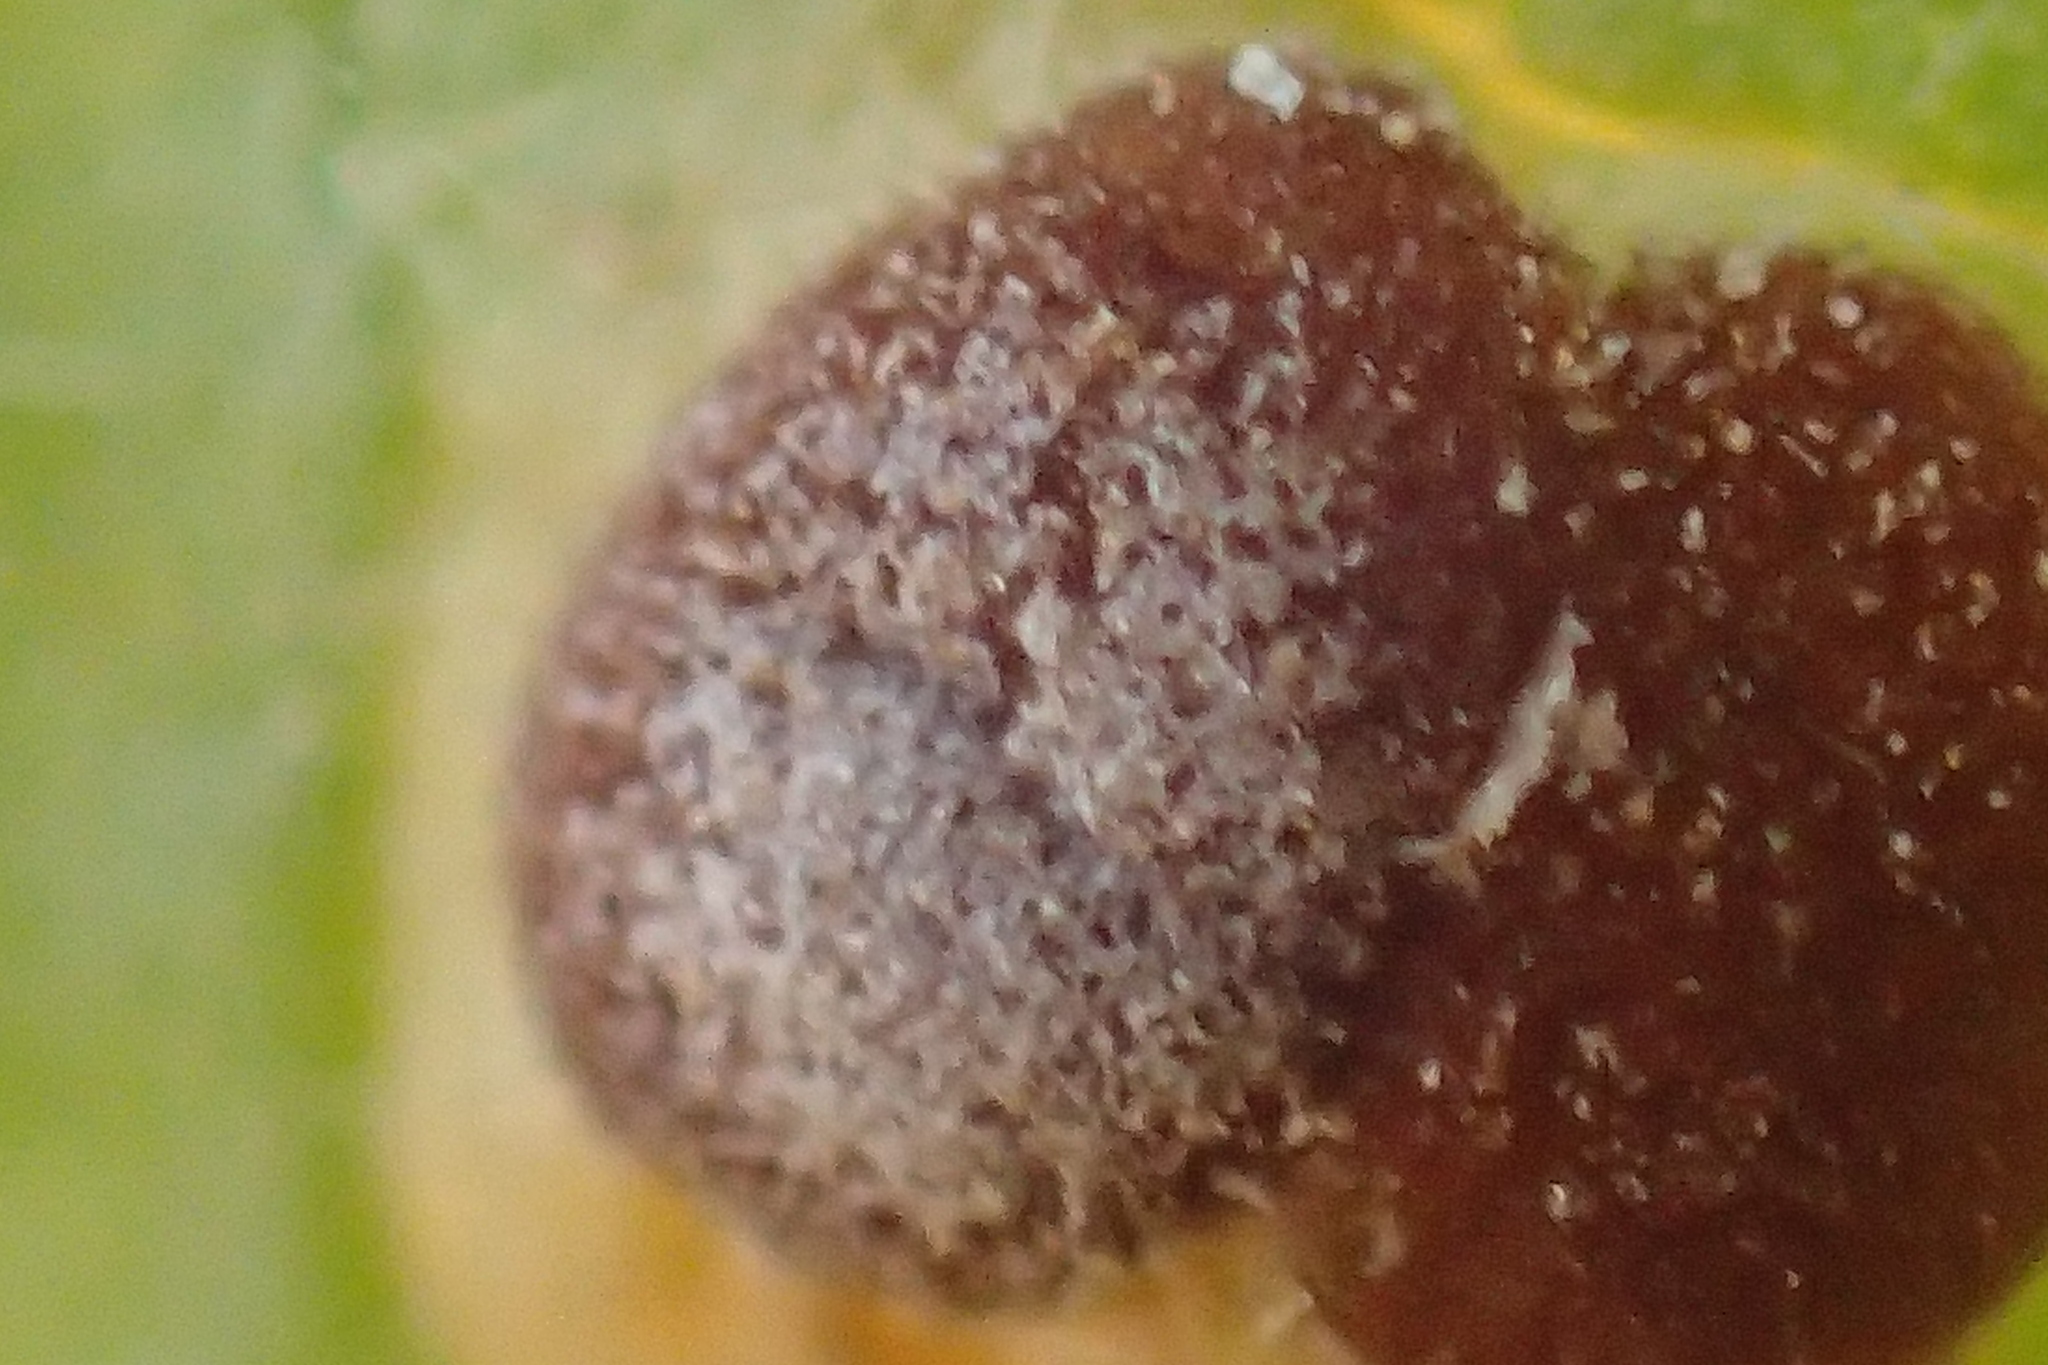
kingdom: Fungi
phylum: Basidiomycota
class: Pucciniomycetes
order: Pucciniales
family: Pucciniaceae
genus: Puccinia
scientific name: Puccinia malvacearum
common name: Hollyhock rust
